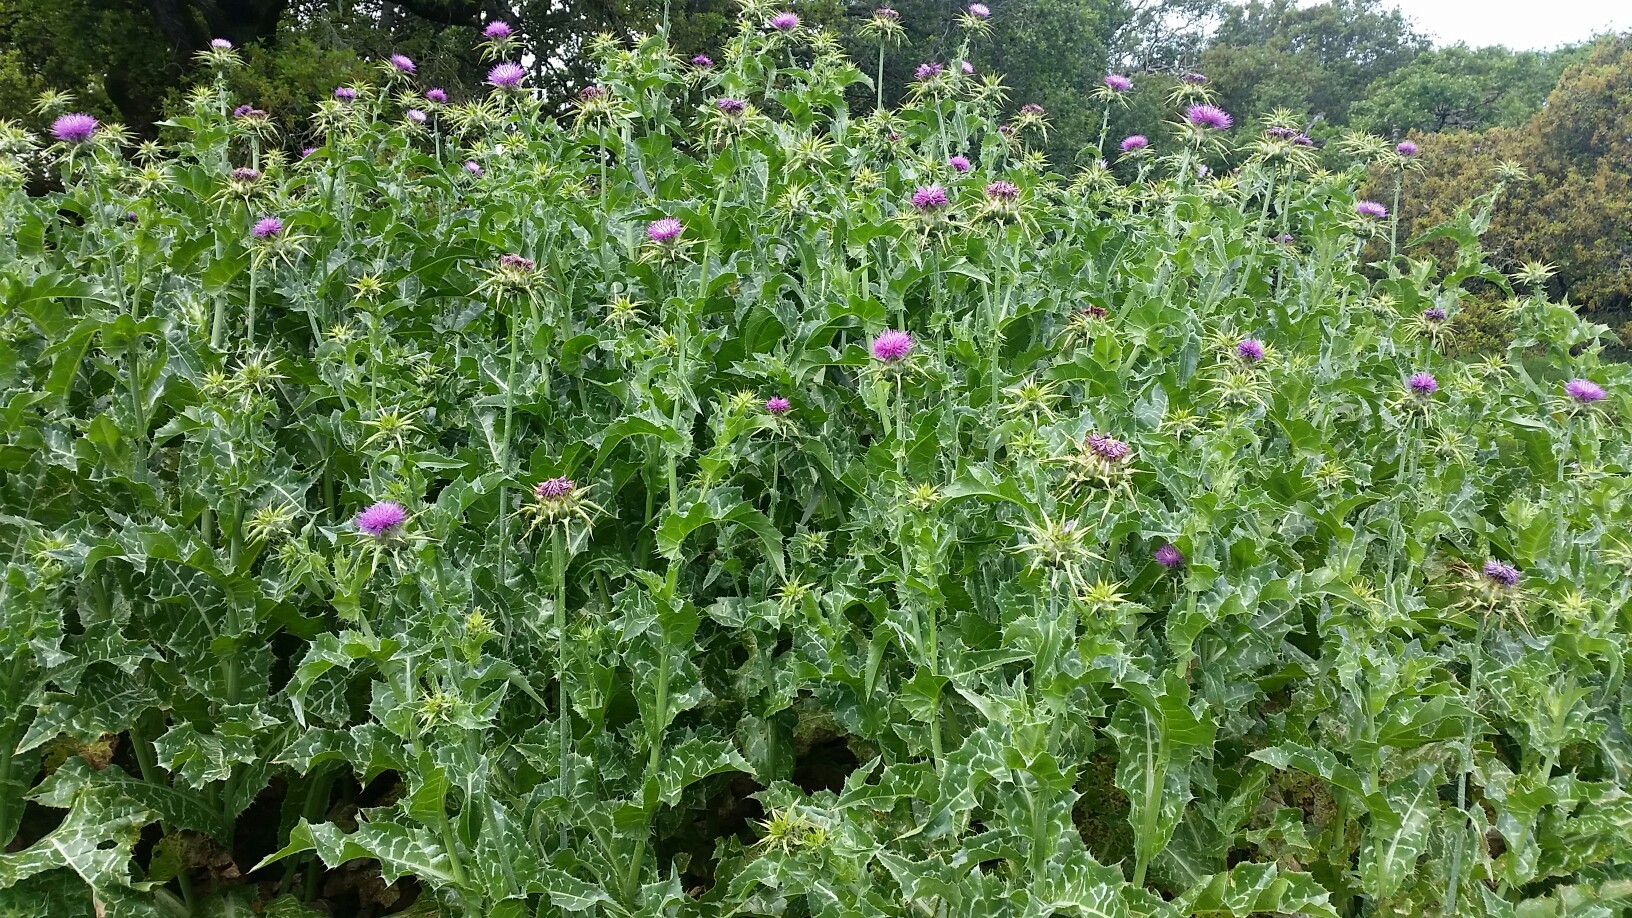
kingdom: Plantae
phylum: Tracheophyta
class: Magnoliopsida
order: Asterales
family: Asteraceae
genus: Silybum
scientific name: Silybum marianum
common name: Milk thistle
